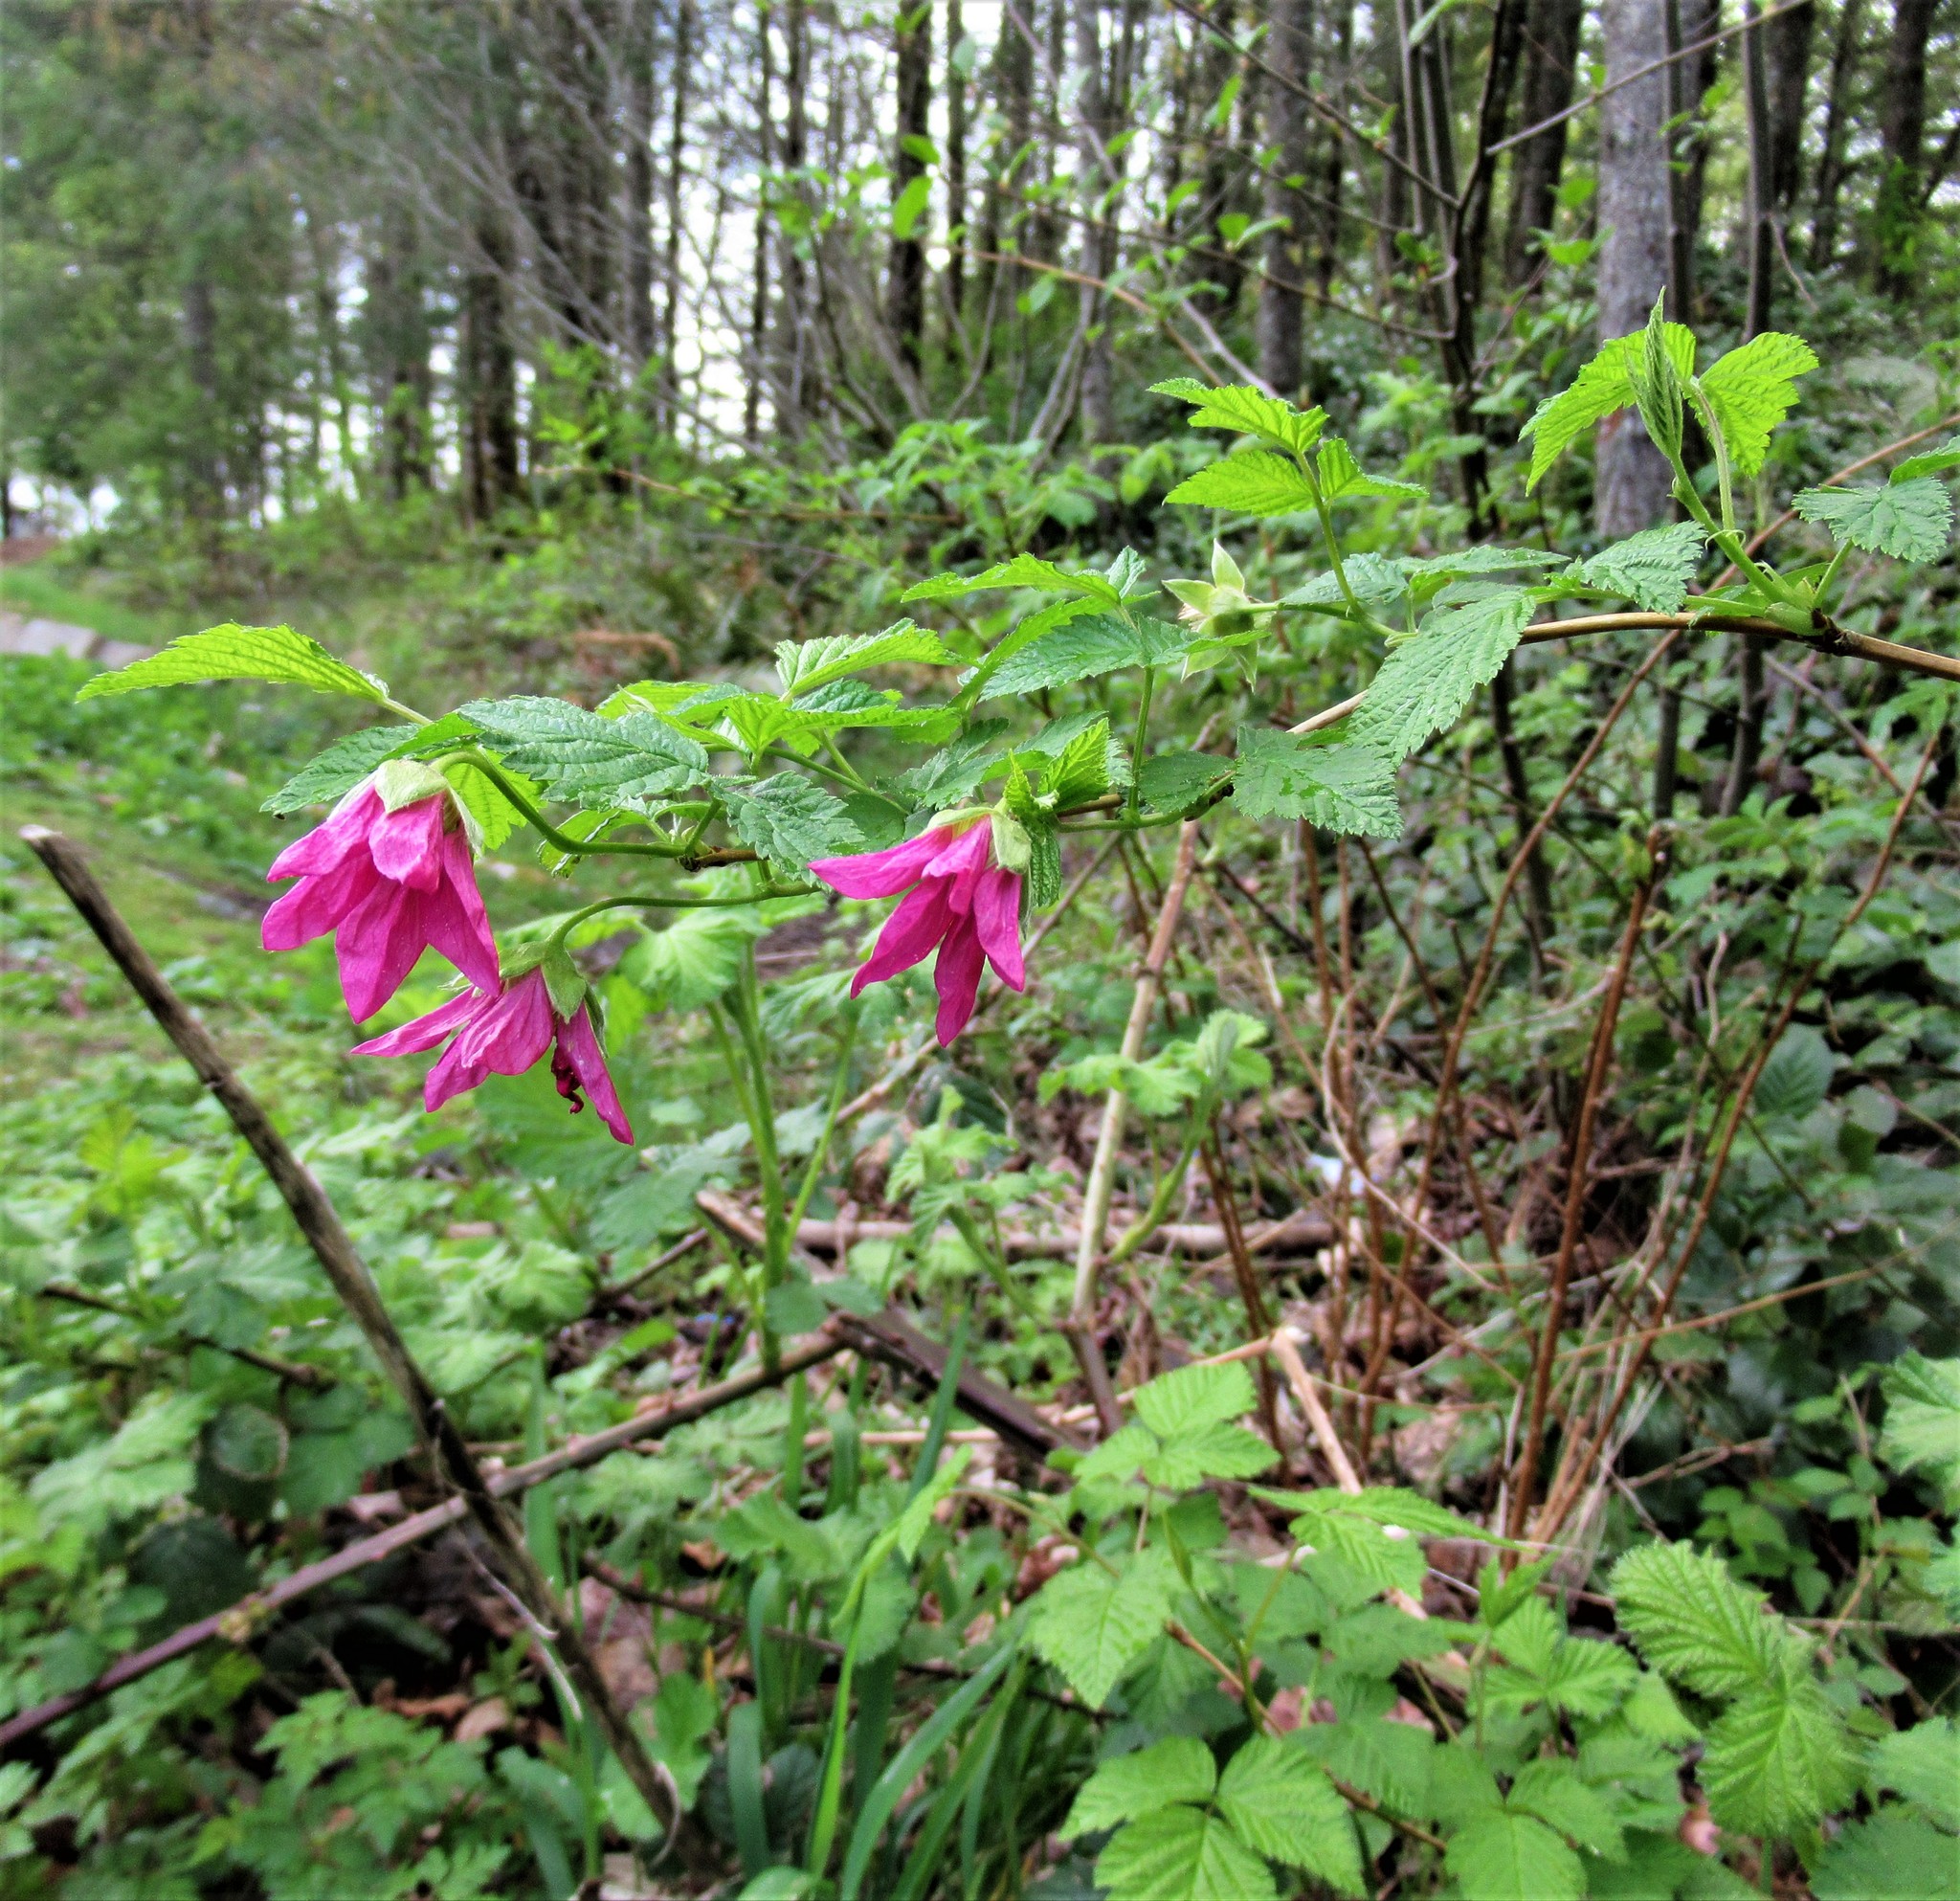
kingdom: Plantae
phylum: Tracheophyta
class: Magnoliopsida
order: Rosales
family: Rosaceae
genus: Rubus
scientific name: Rubus spectabilis
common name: Salmonberry
